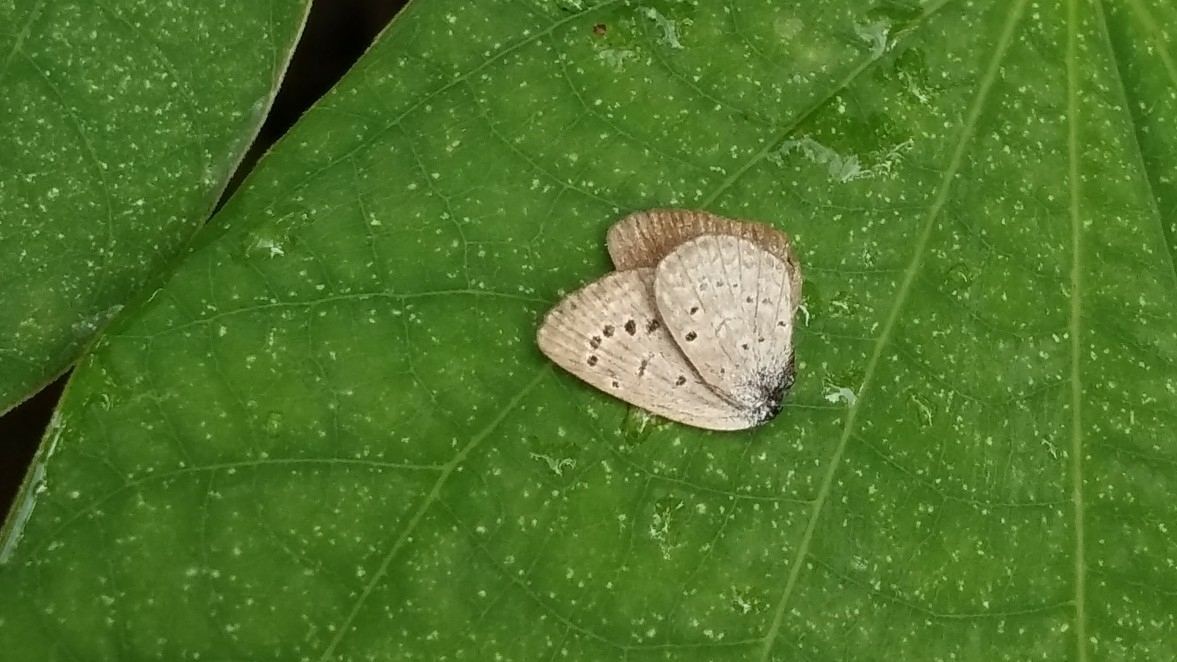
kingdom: Animalia
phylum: Arthropoda
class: Insecta
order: Lepidoptera
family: Lycaenidae
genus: Zizeeria
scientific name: Zizeeria karsandra
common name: Dark grass blue
